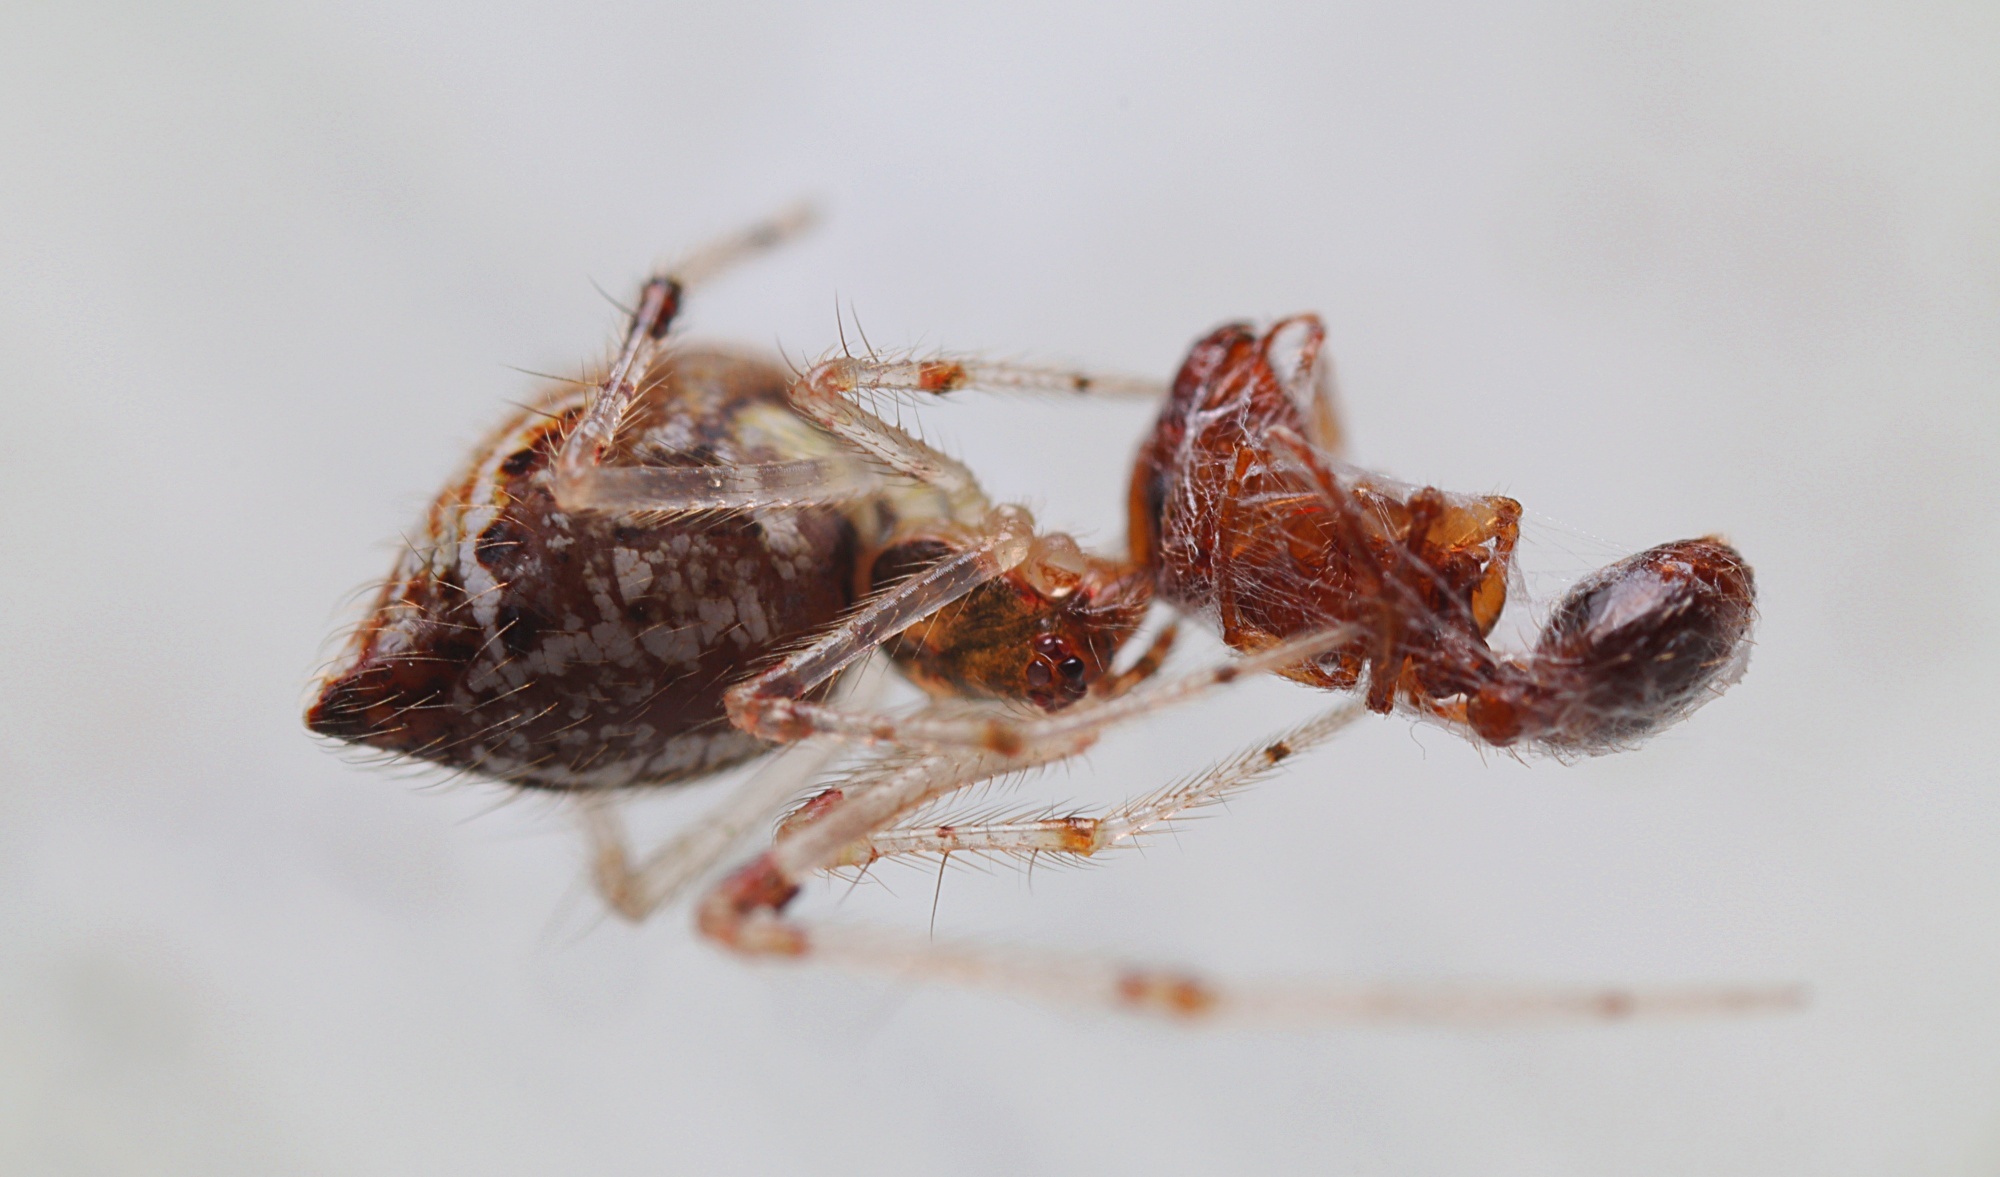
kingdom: Animalia
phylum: Arthropoda
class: Arachnida
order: Araneae
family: Theridiidae
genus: Cryptachaea
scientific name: Cryptachaea meraukensis
